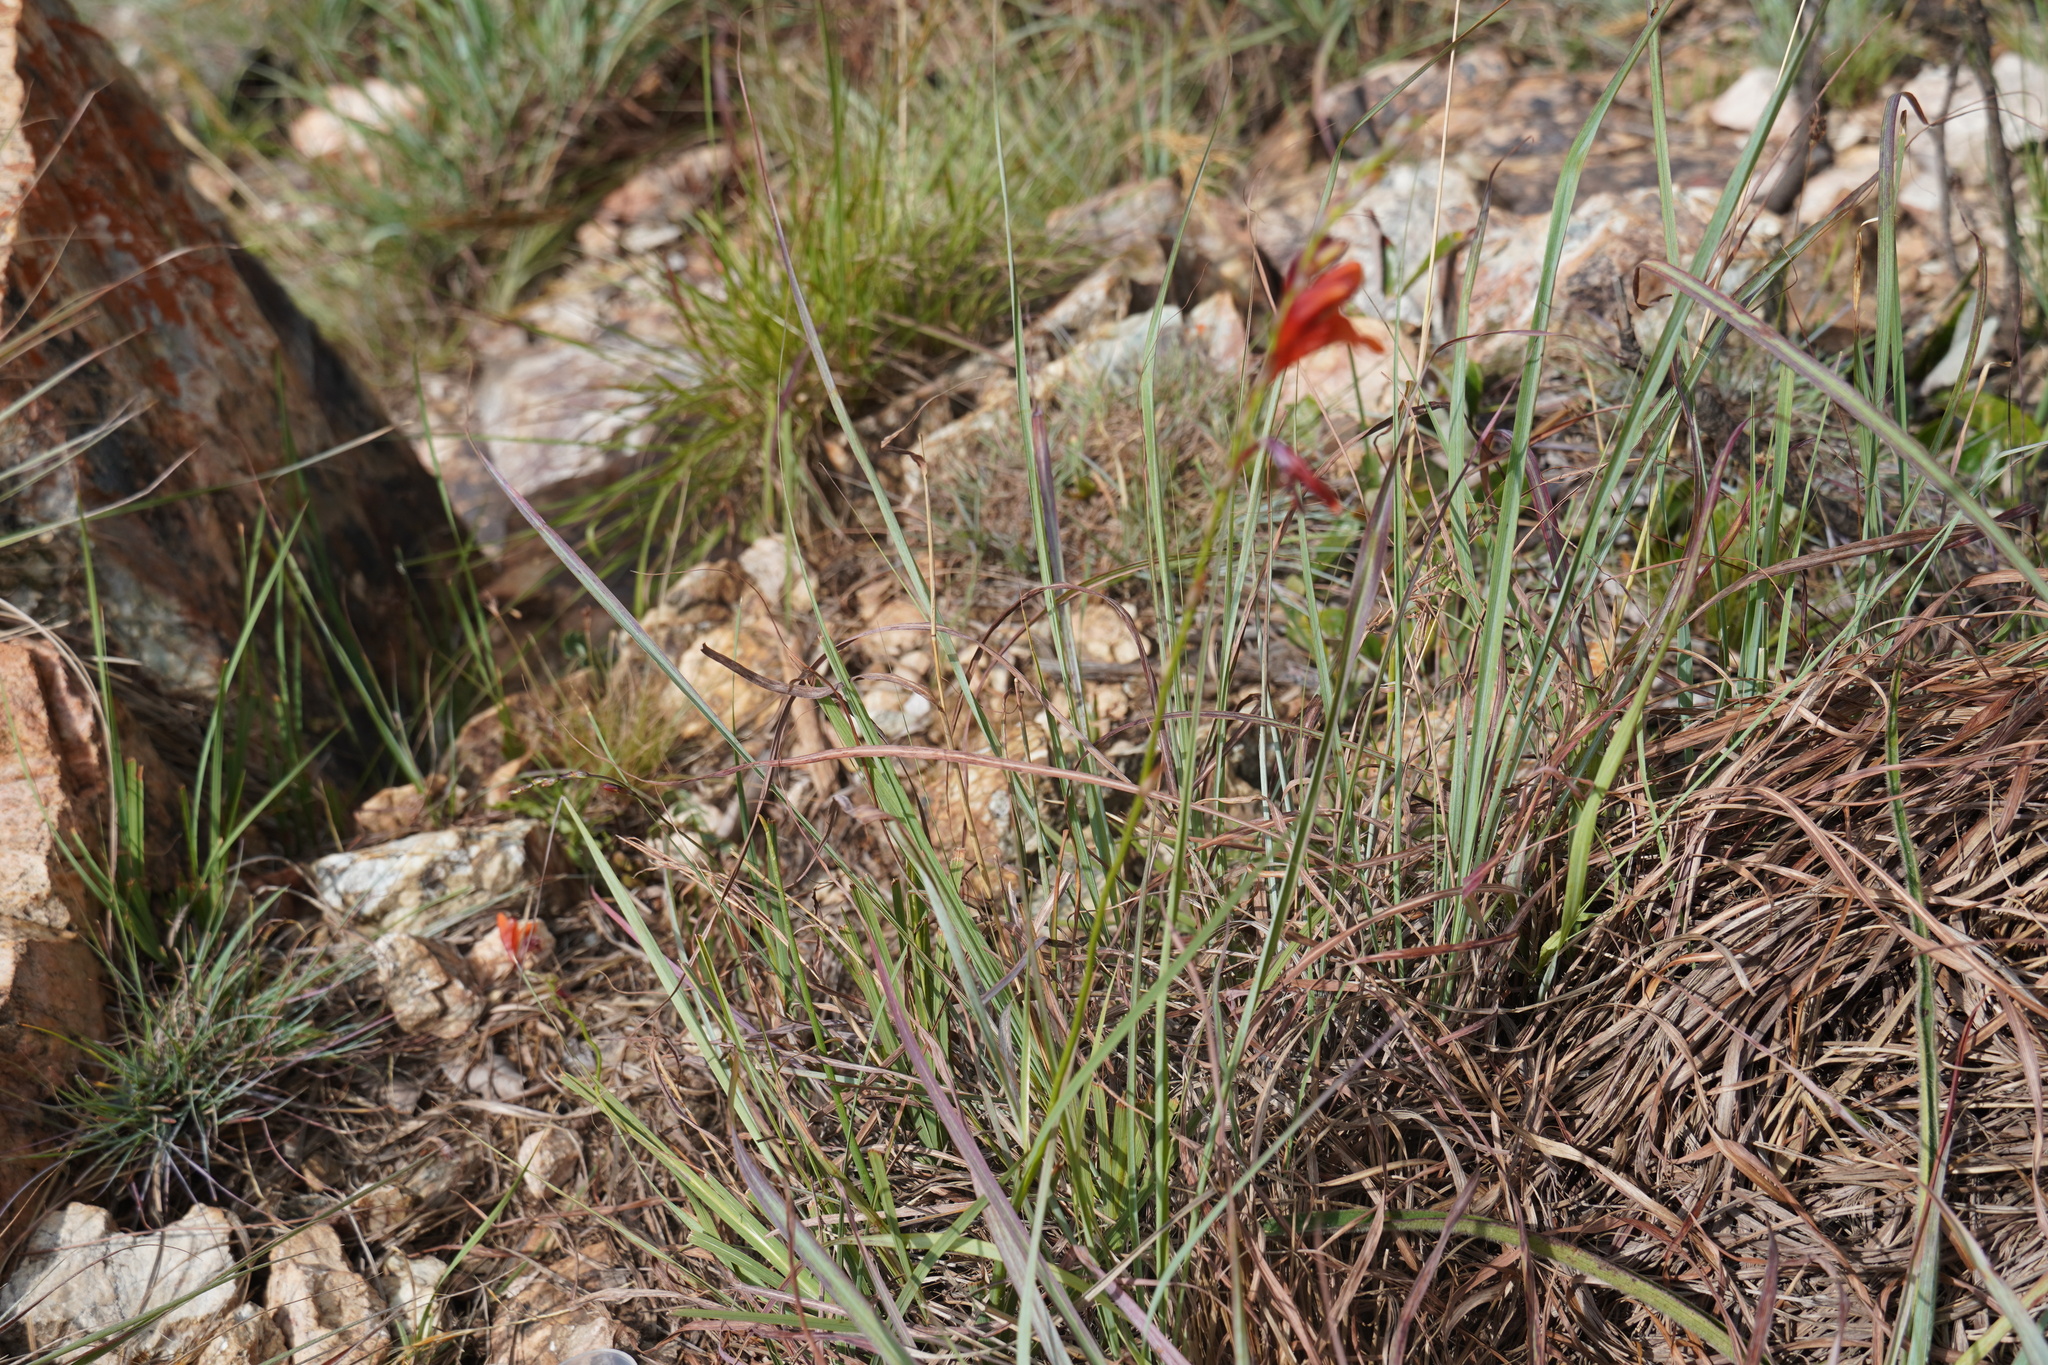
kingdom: Plantae
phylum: Tracheophyta
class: Liliopsida
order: Asparagales
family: Iridaceae
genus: Tritonia
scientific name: Tritonia nelsonii
